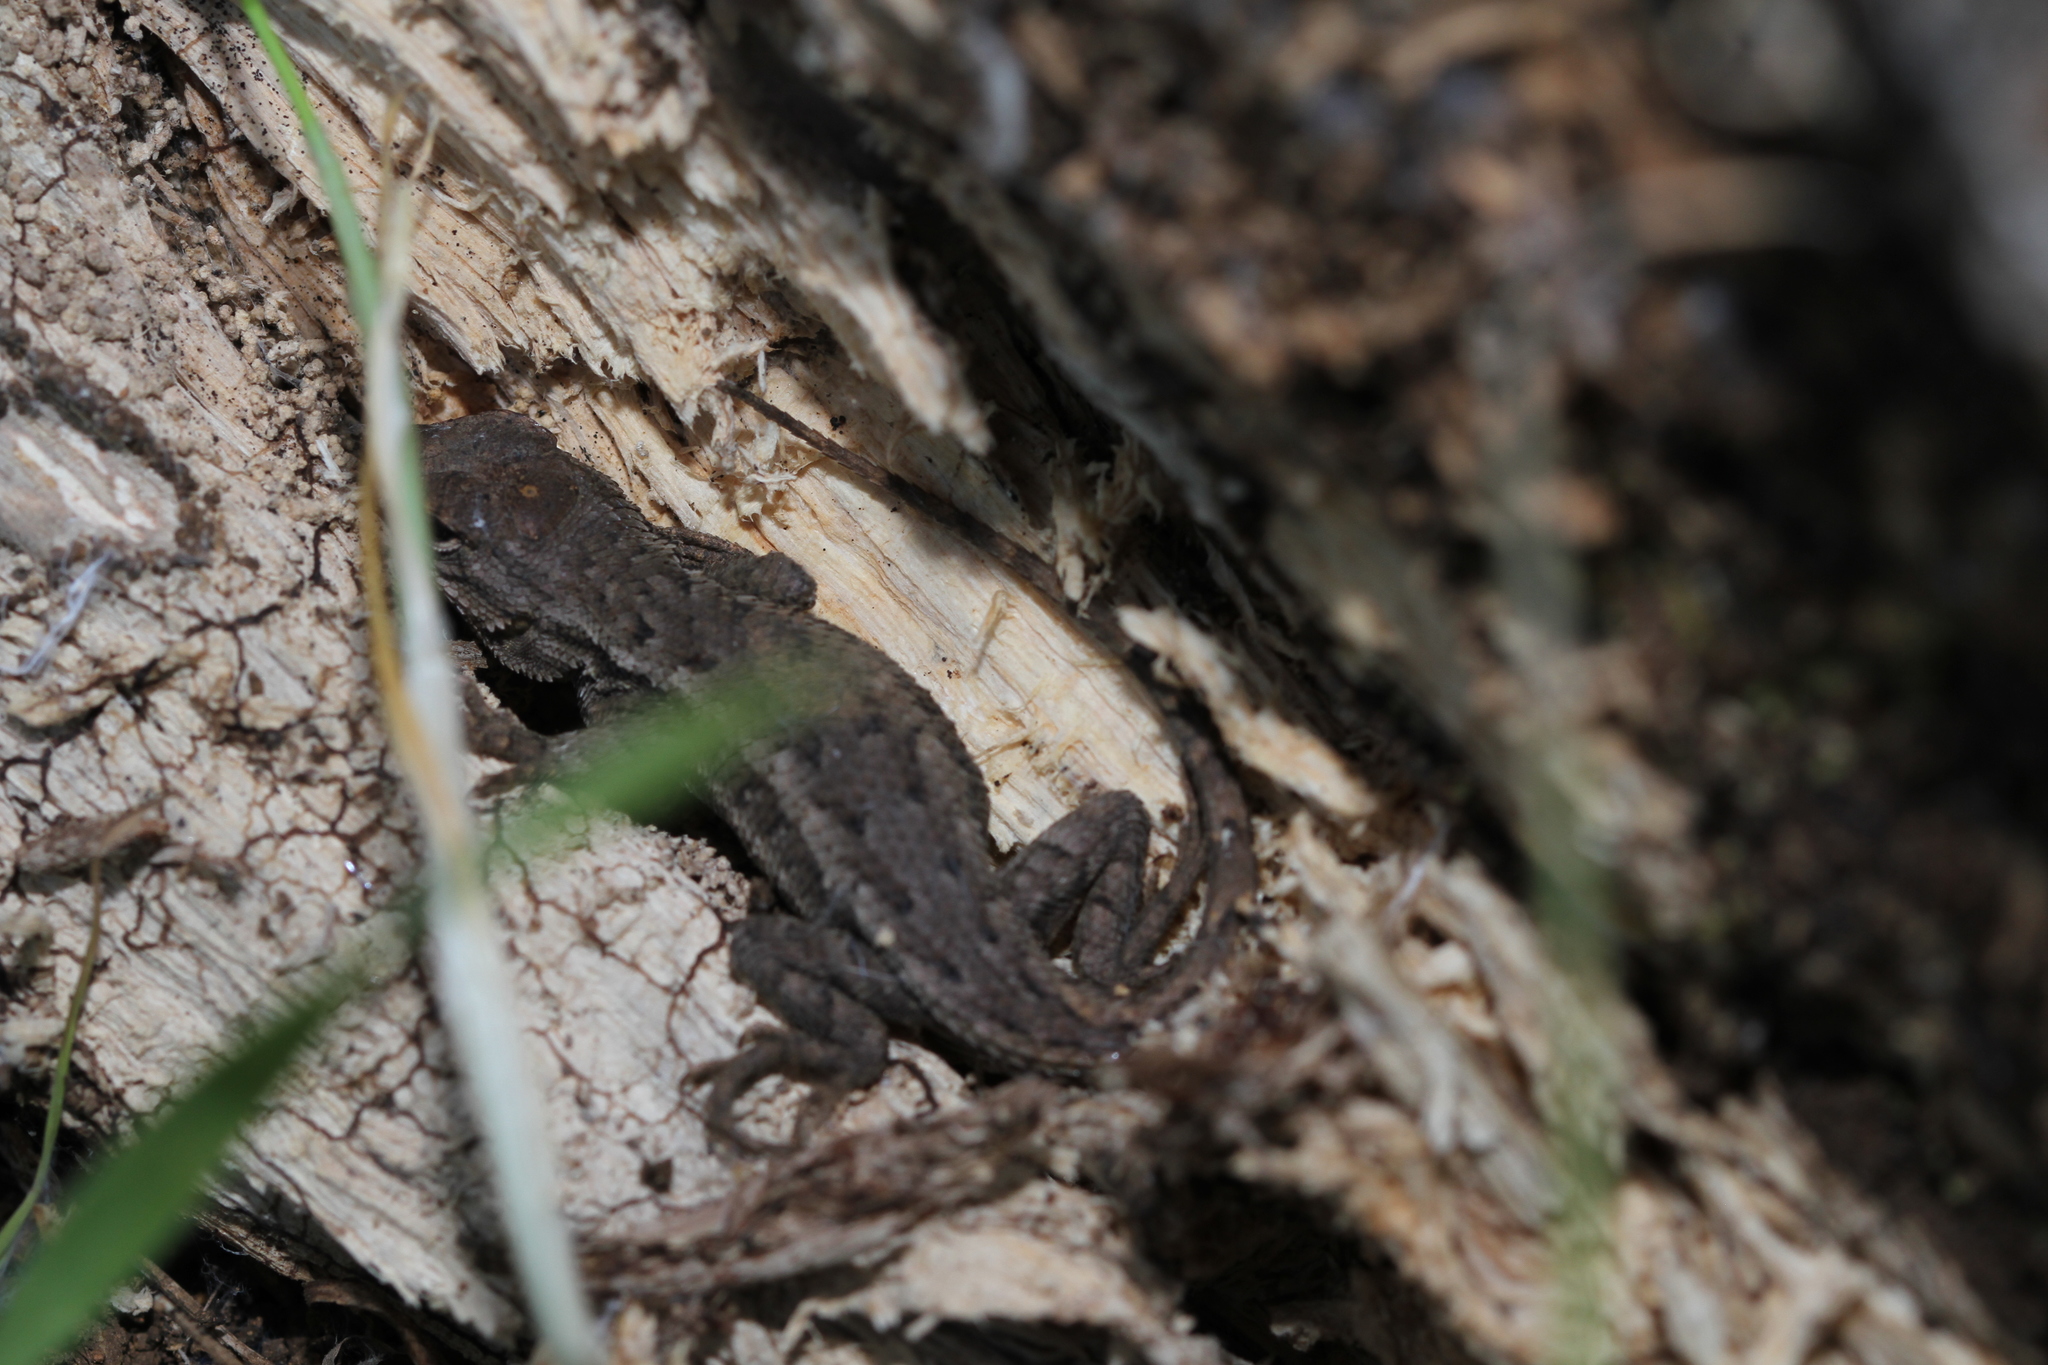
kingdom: Animalia
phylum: Chordata
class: Squamata
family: Phrynosomatidae
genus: Sceloporus
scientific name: Sceloporus occidentalis
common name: Western fence lizard
